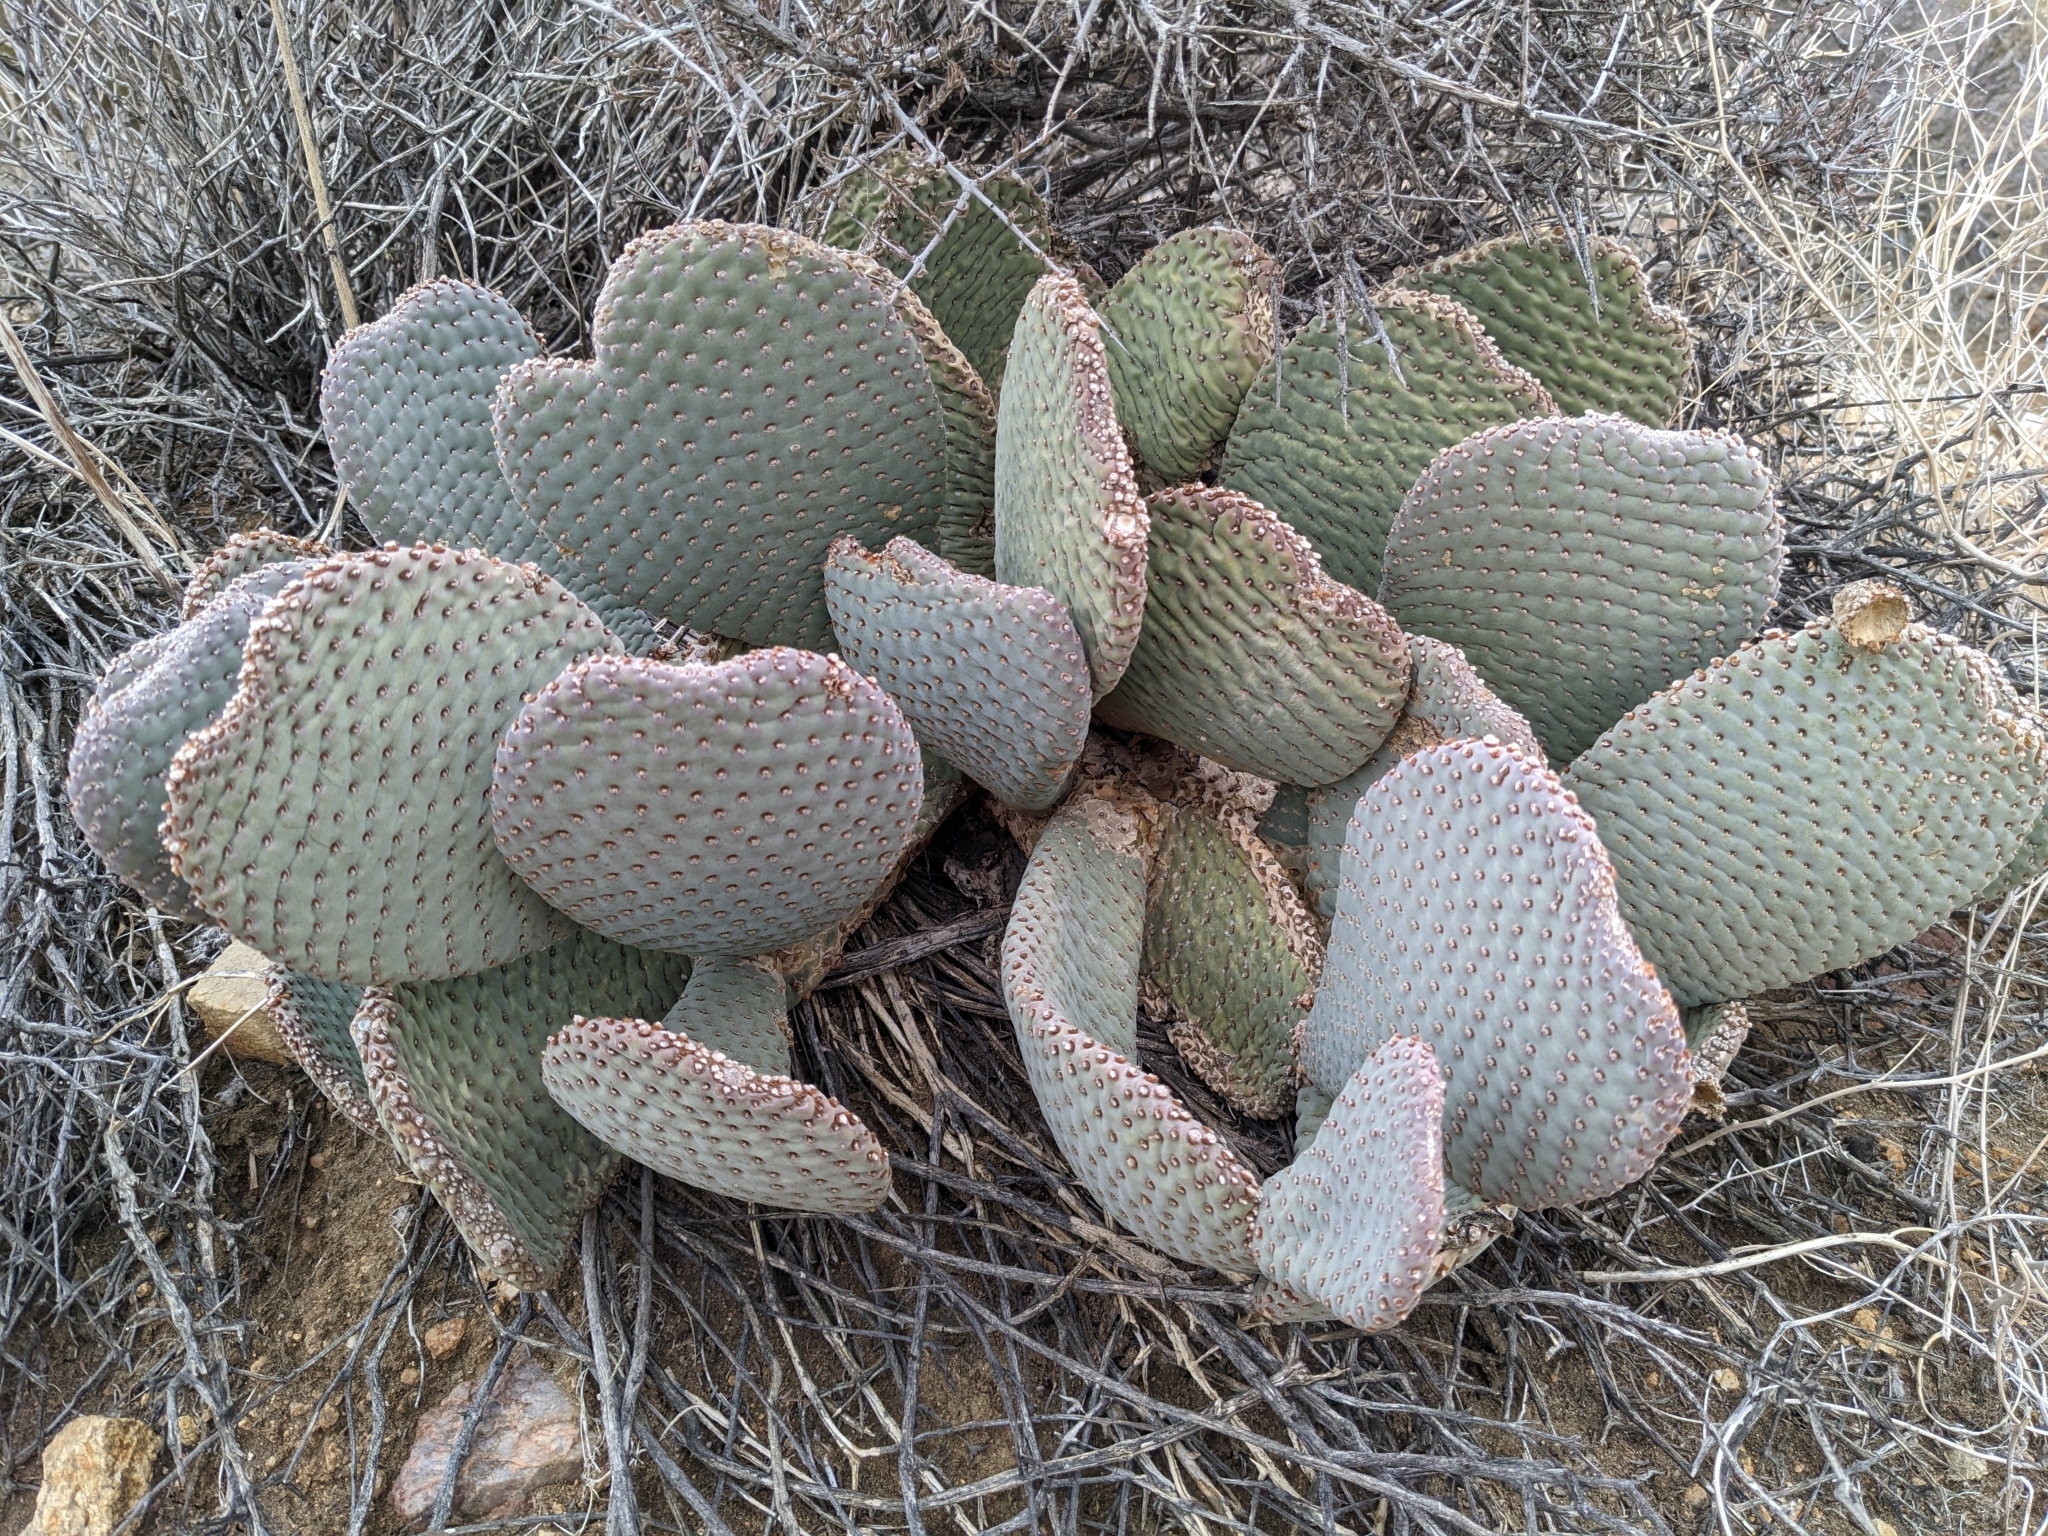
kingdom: Plantae
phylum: Tracheophyta
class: Magnoliopsida
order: Caryophyllales
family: Cactaceae
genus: Opuntia
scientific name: Opuntia basilaris
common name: Beavertail prickly-pear
